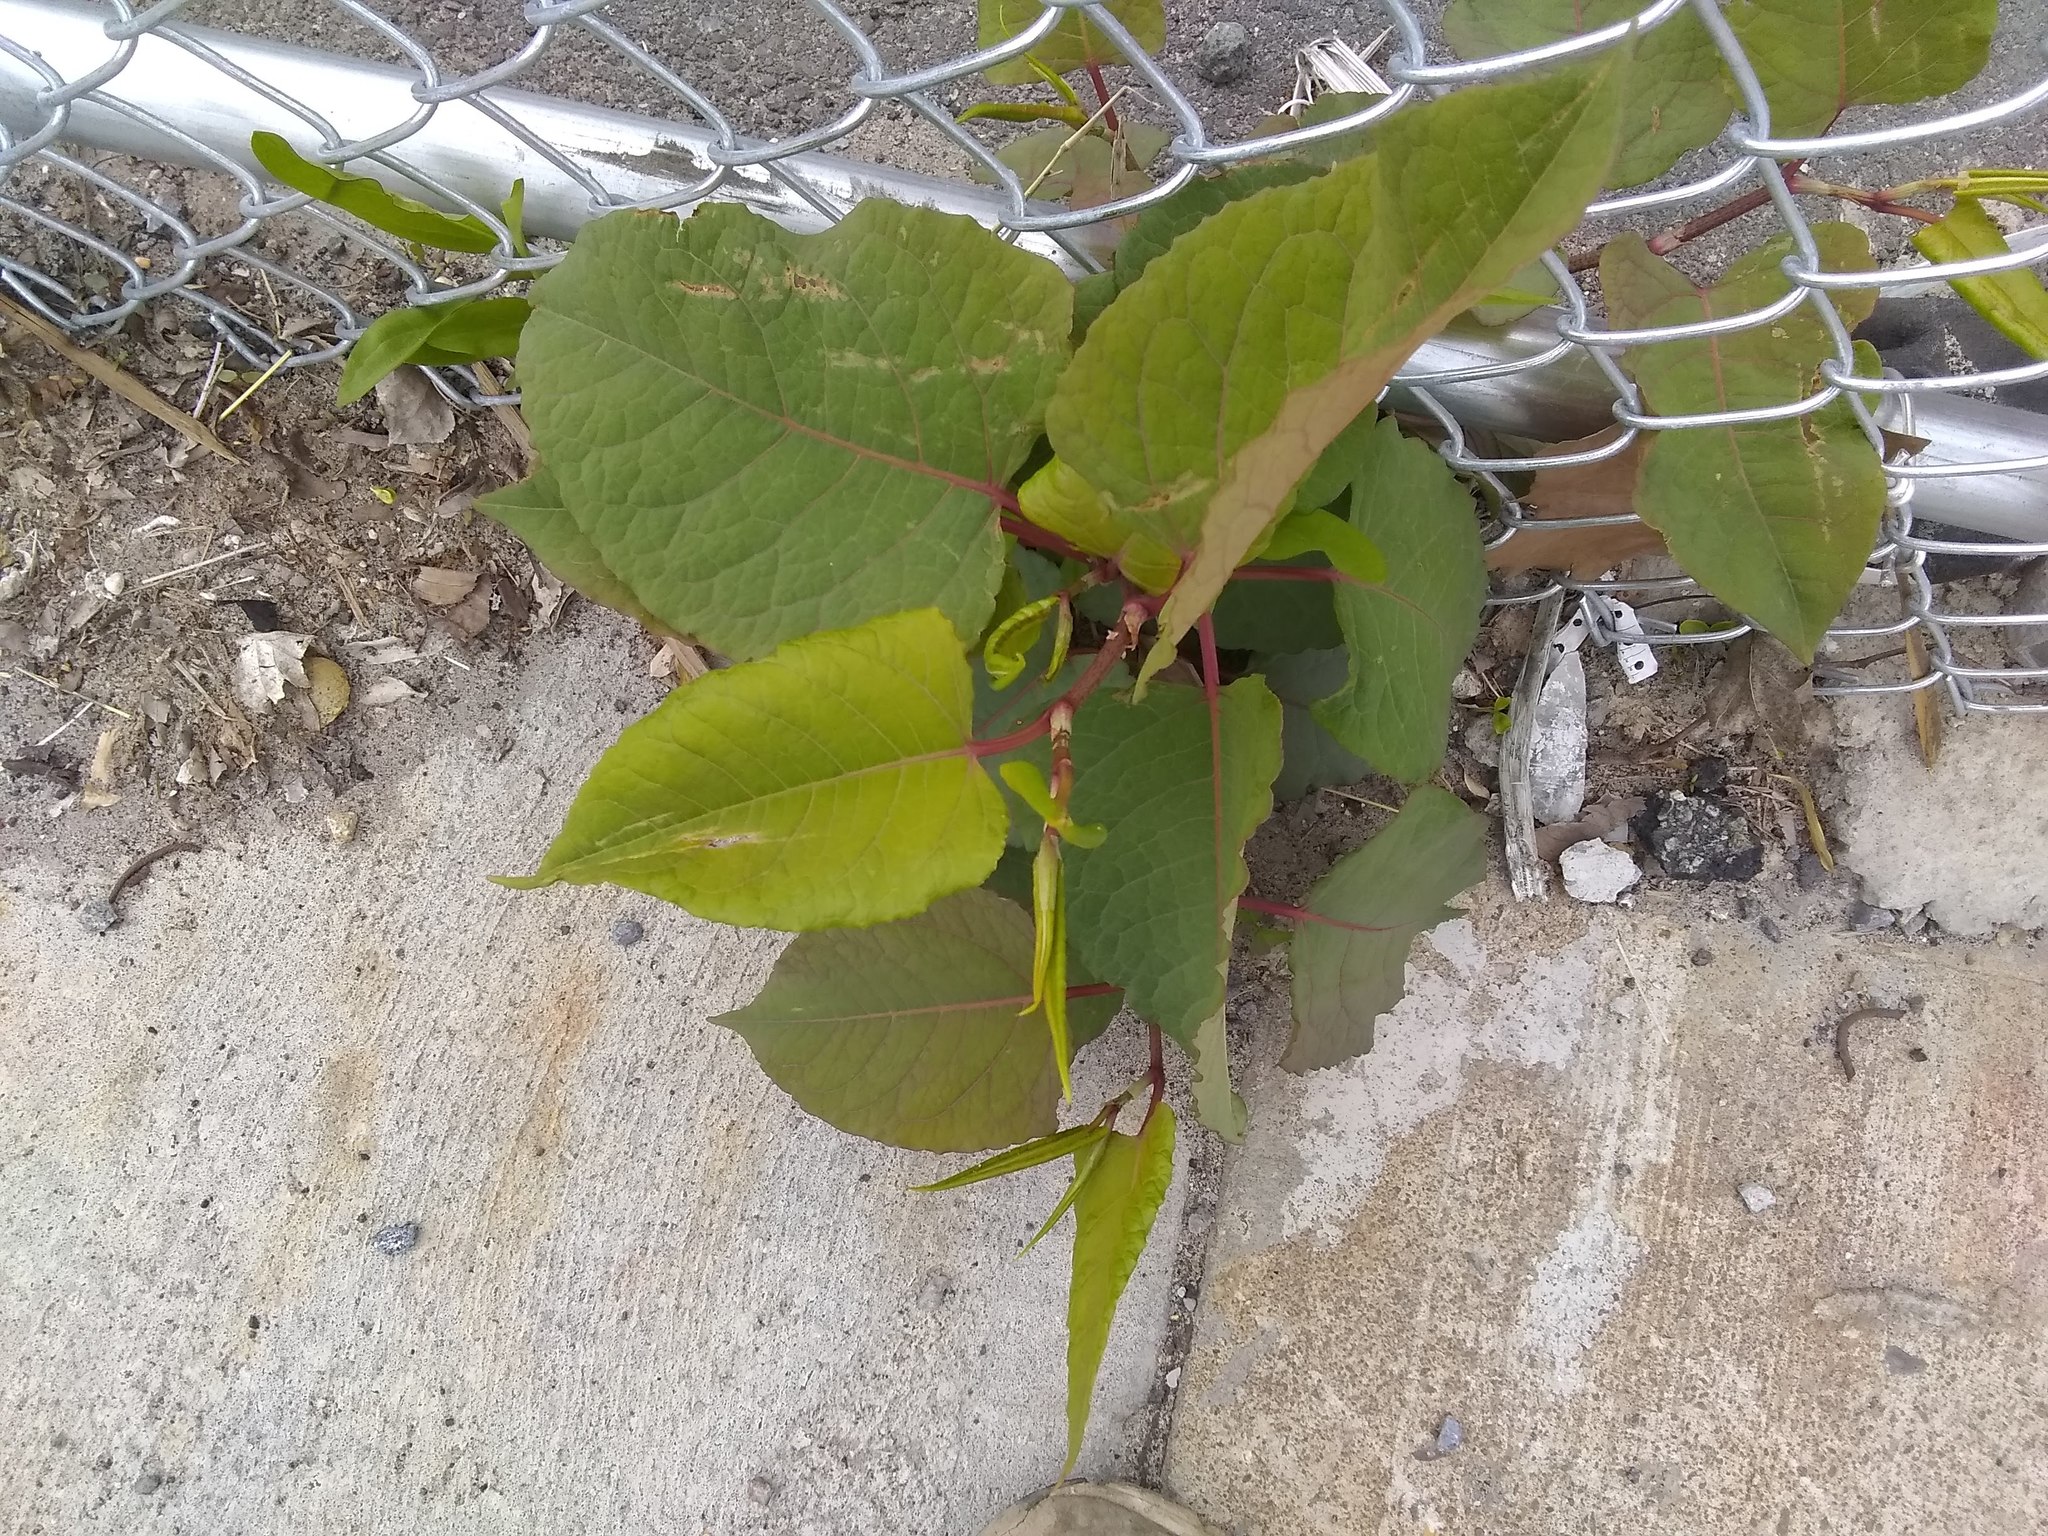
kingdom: Plantae
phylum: Tracheophyta
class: Magnoliopsida
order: Caryophyllales
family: Polygonaceae
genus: Reynoutria
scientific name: Reynoutria japonica
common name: Japanese knotweed
